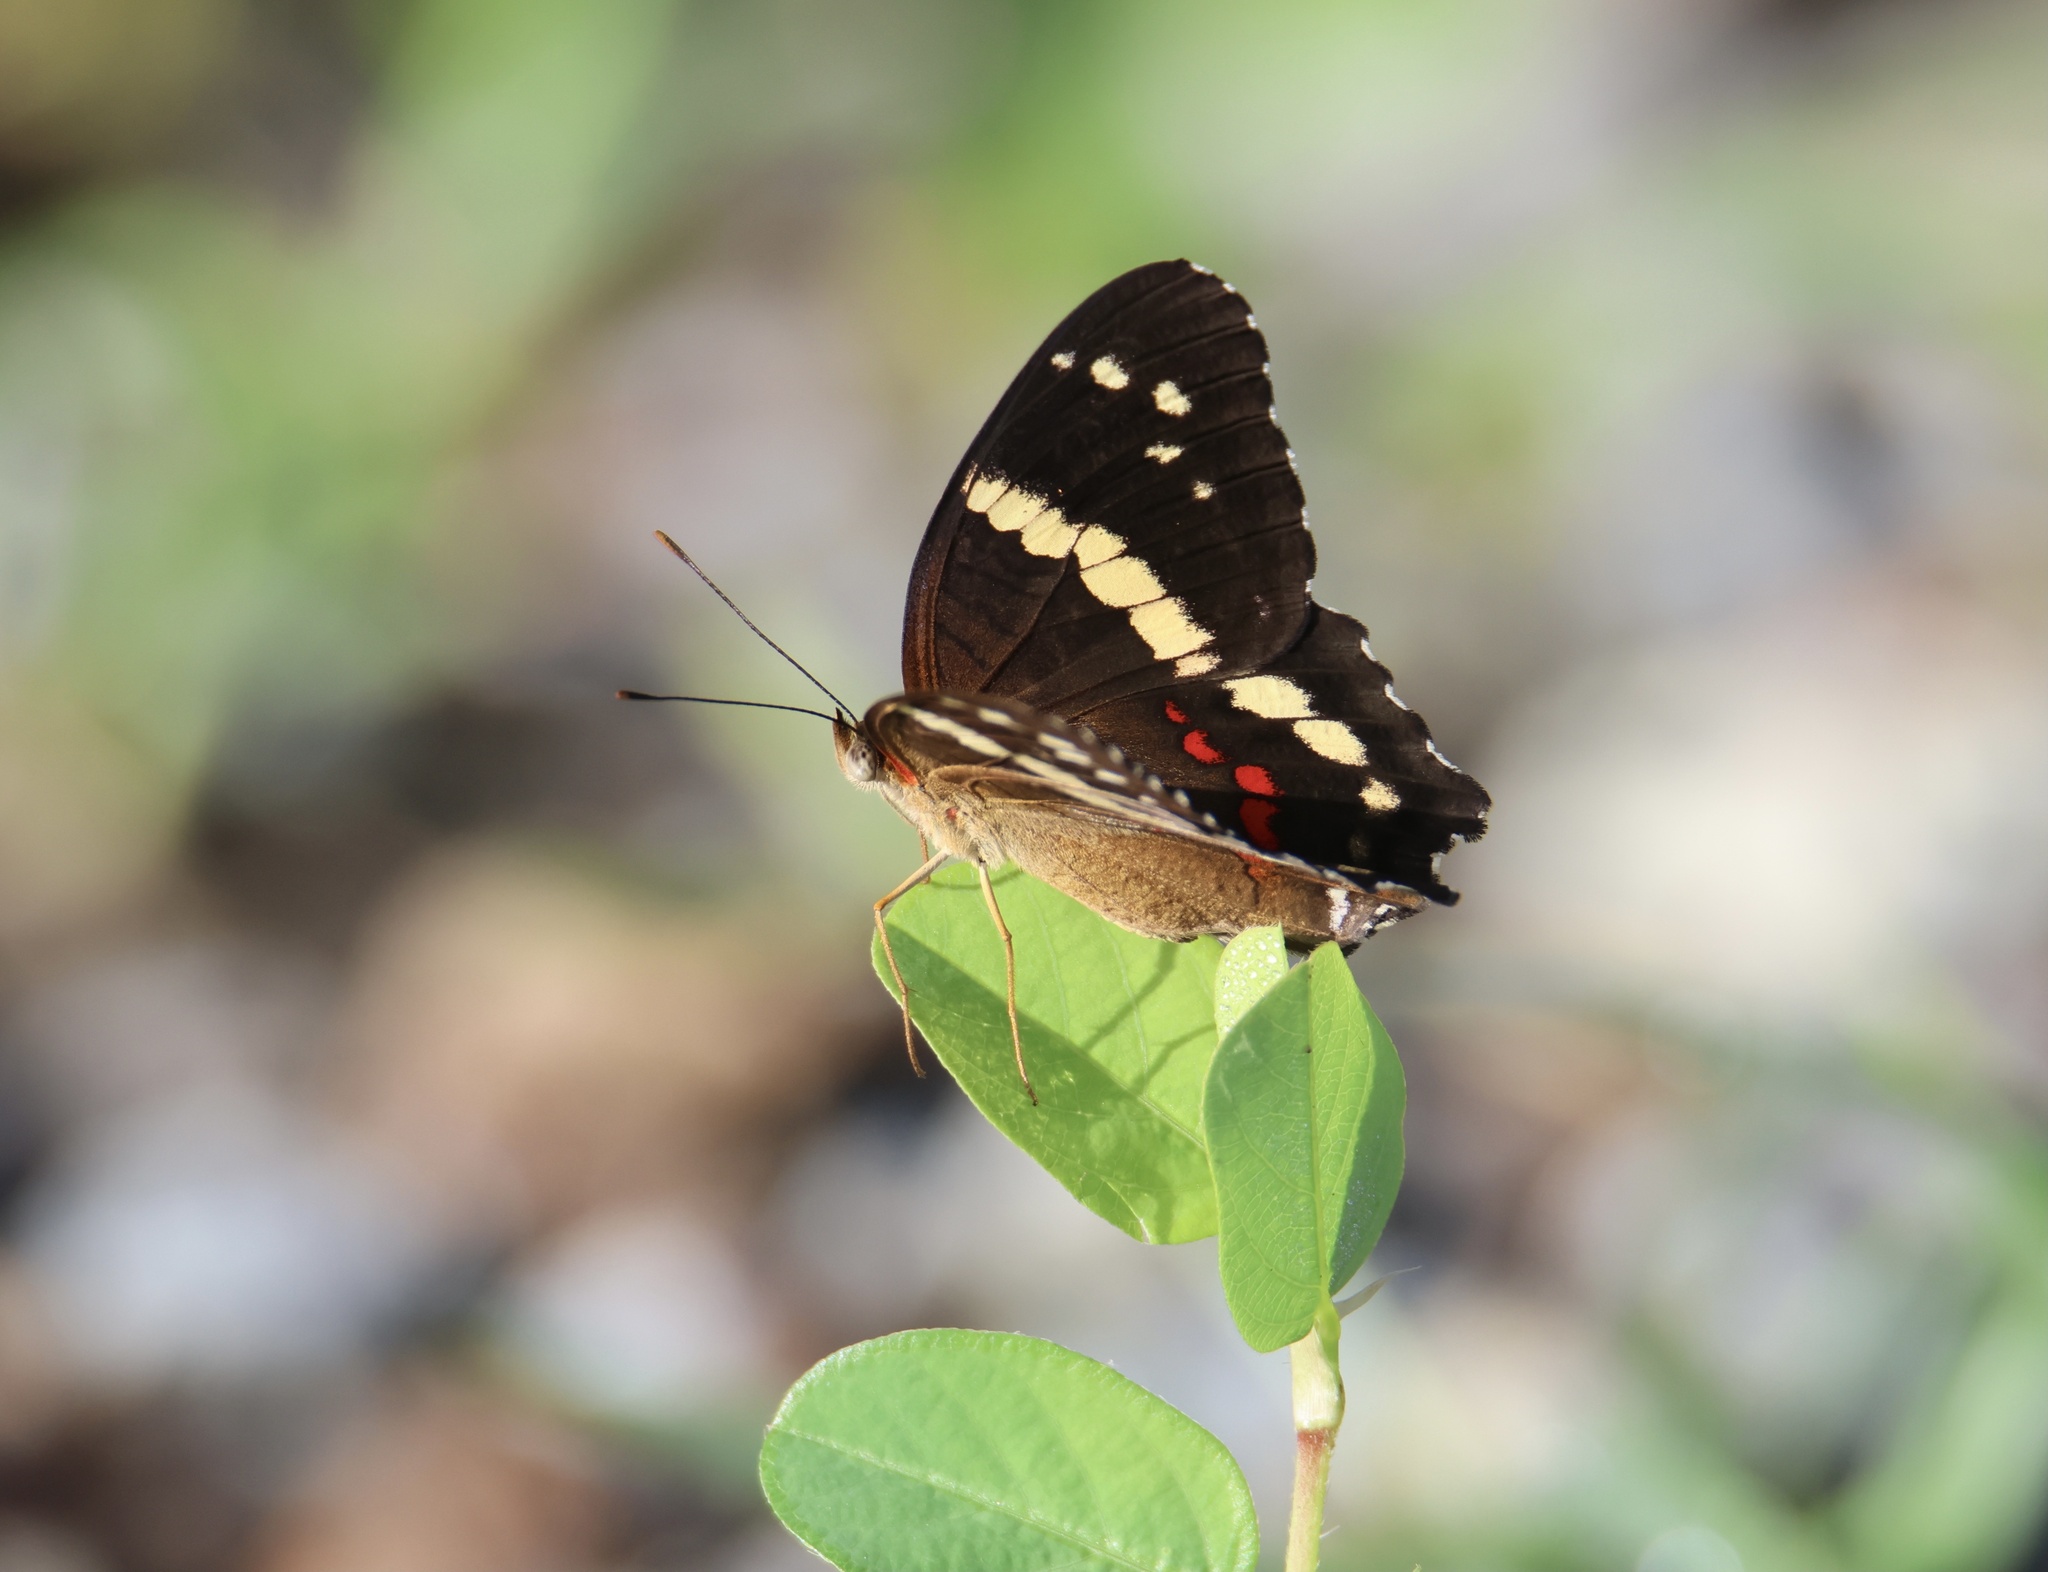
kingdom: Animalia
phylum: Arthropoda
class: Insecta
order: Lepidoptera
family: Nymphalidae
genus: Anartia
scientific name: Anartia fatima
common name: Banded peacock
